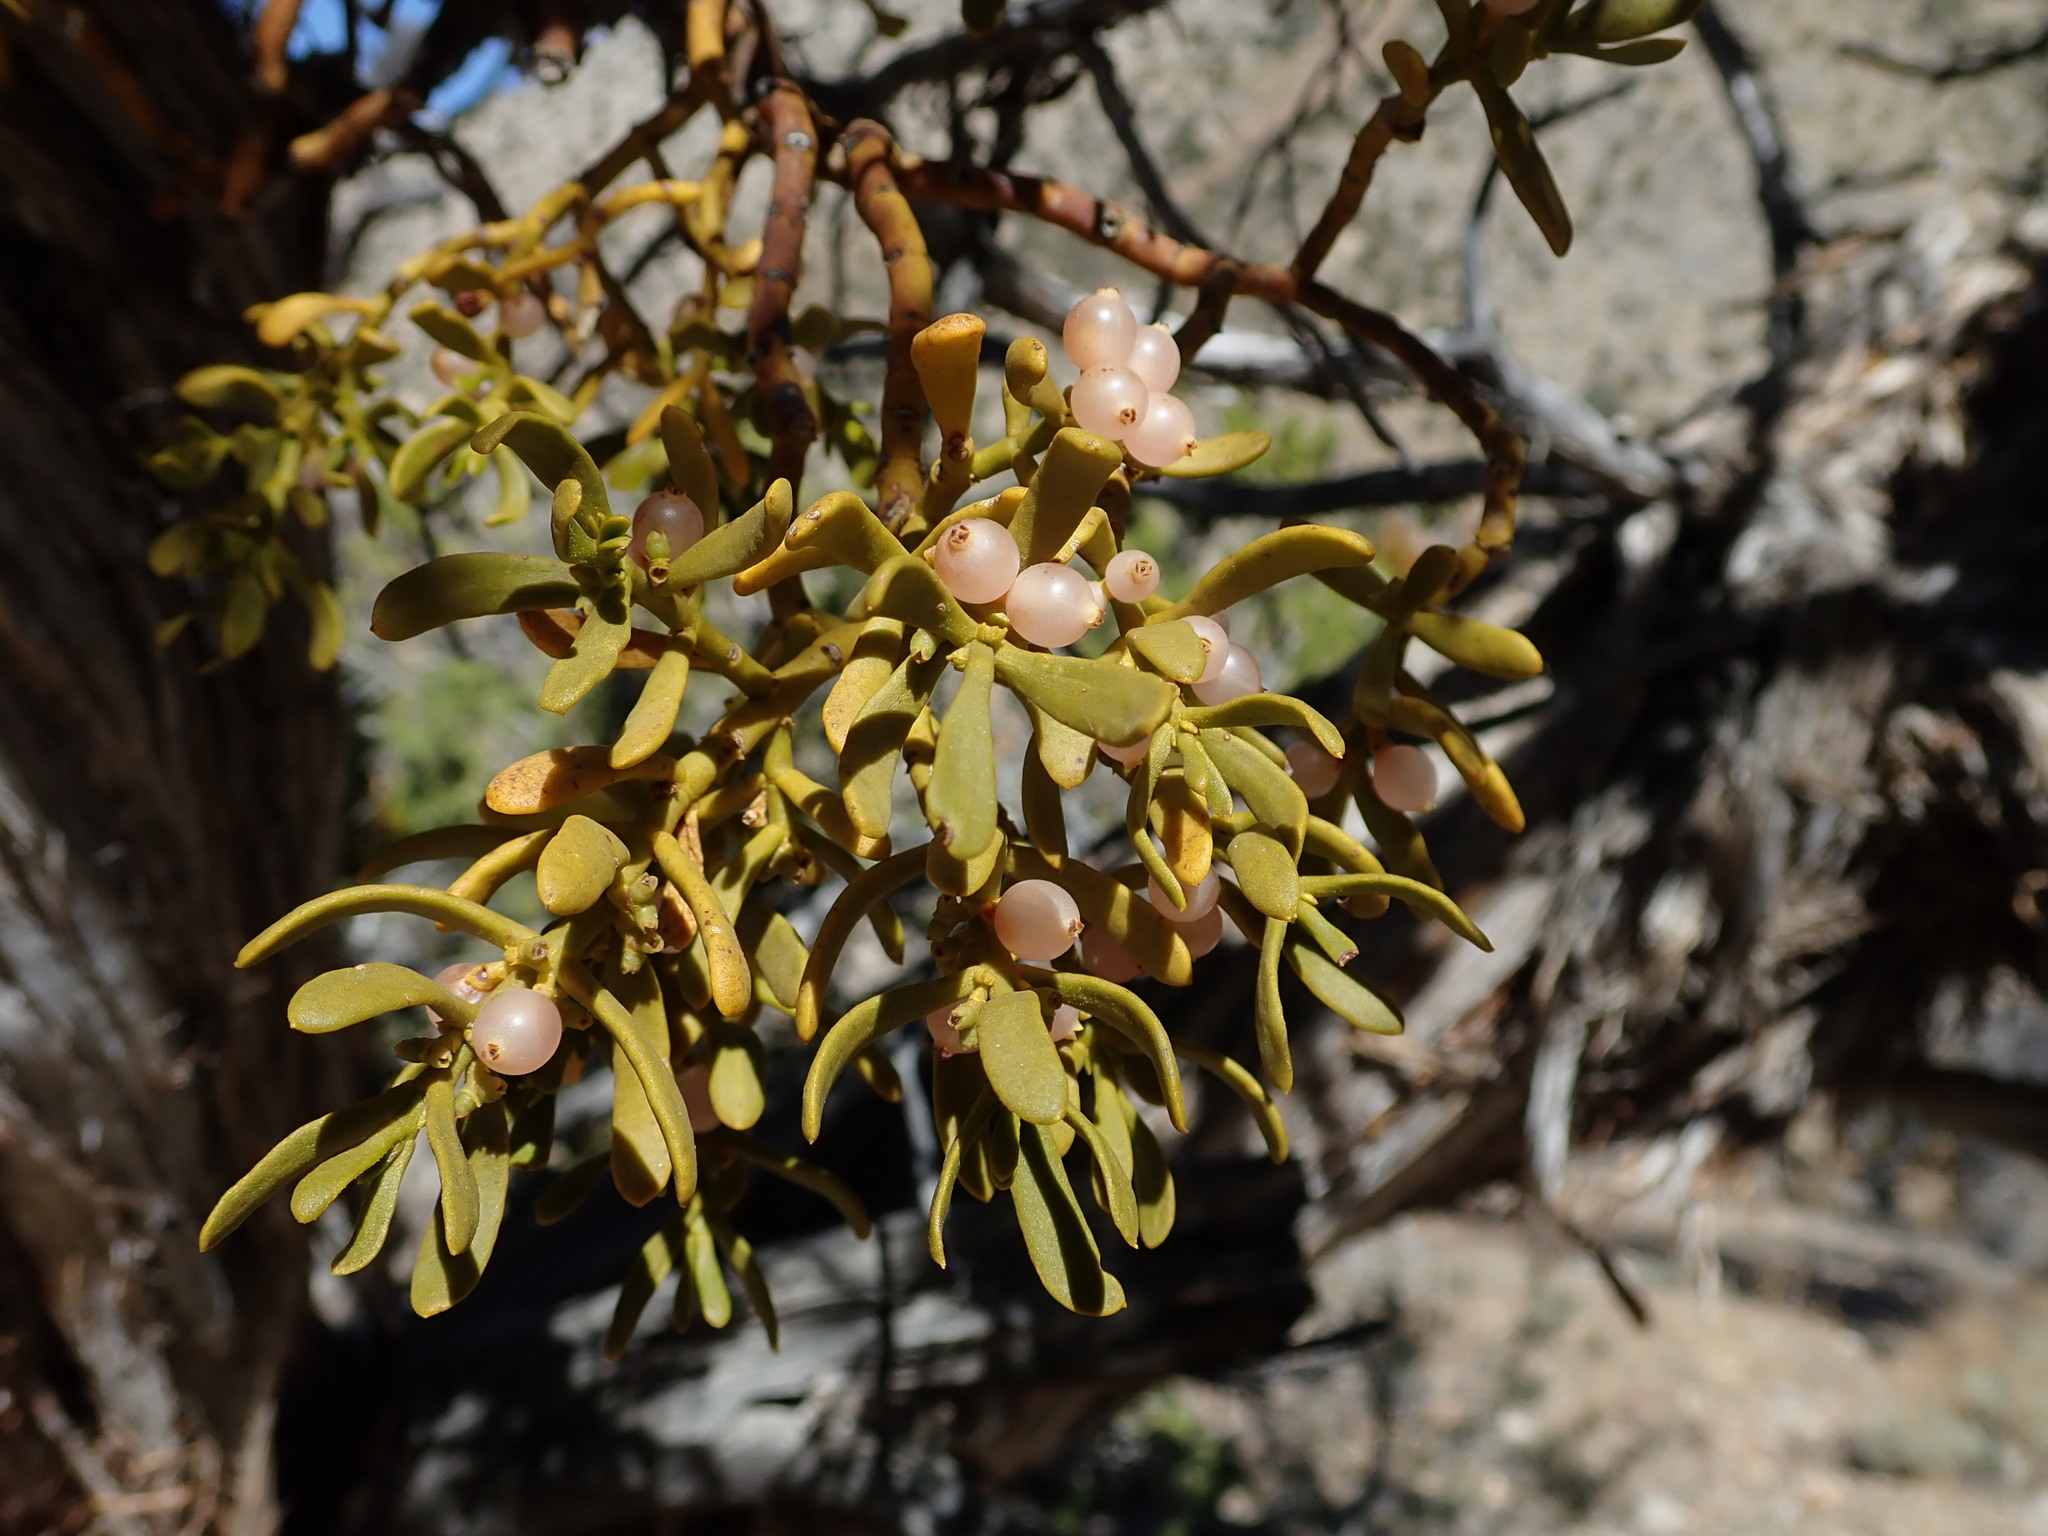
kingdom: Plantae
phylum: Tracheophyta
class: Magnoliopsida
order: Santalales
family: Viscaceae
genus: Phoradendron
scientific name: Phoradendron bolleanum
